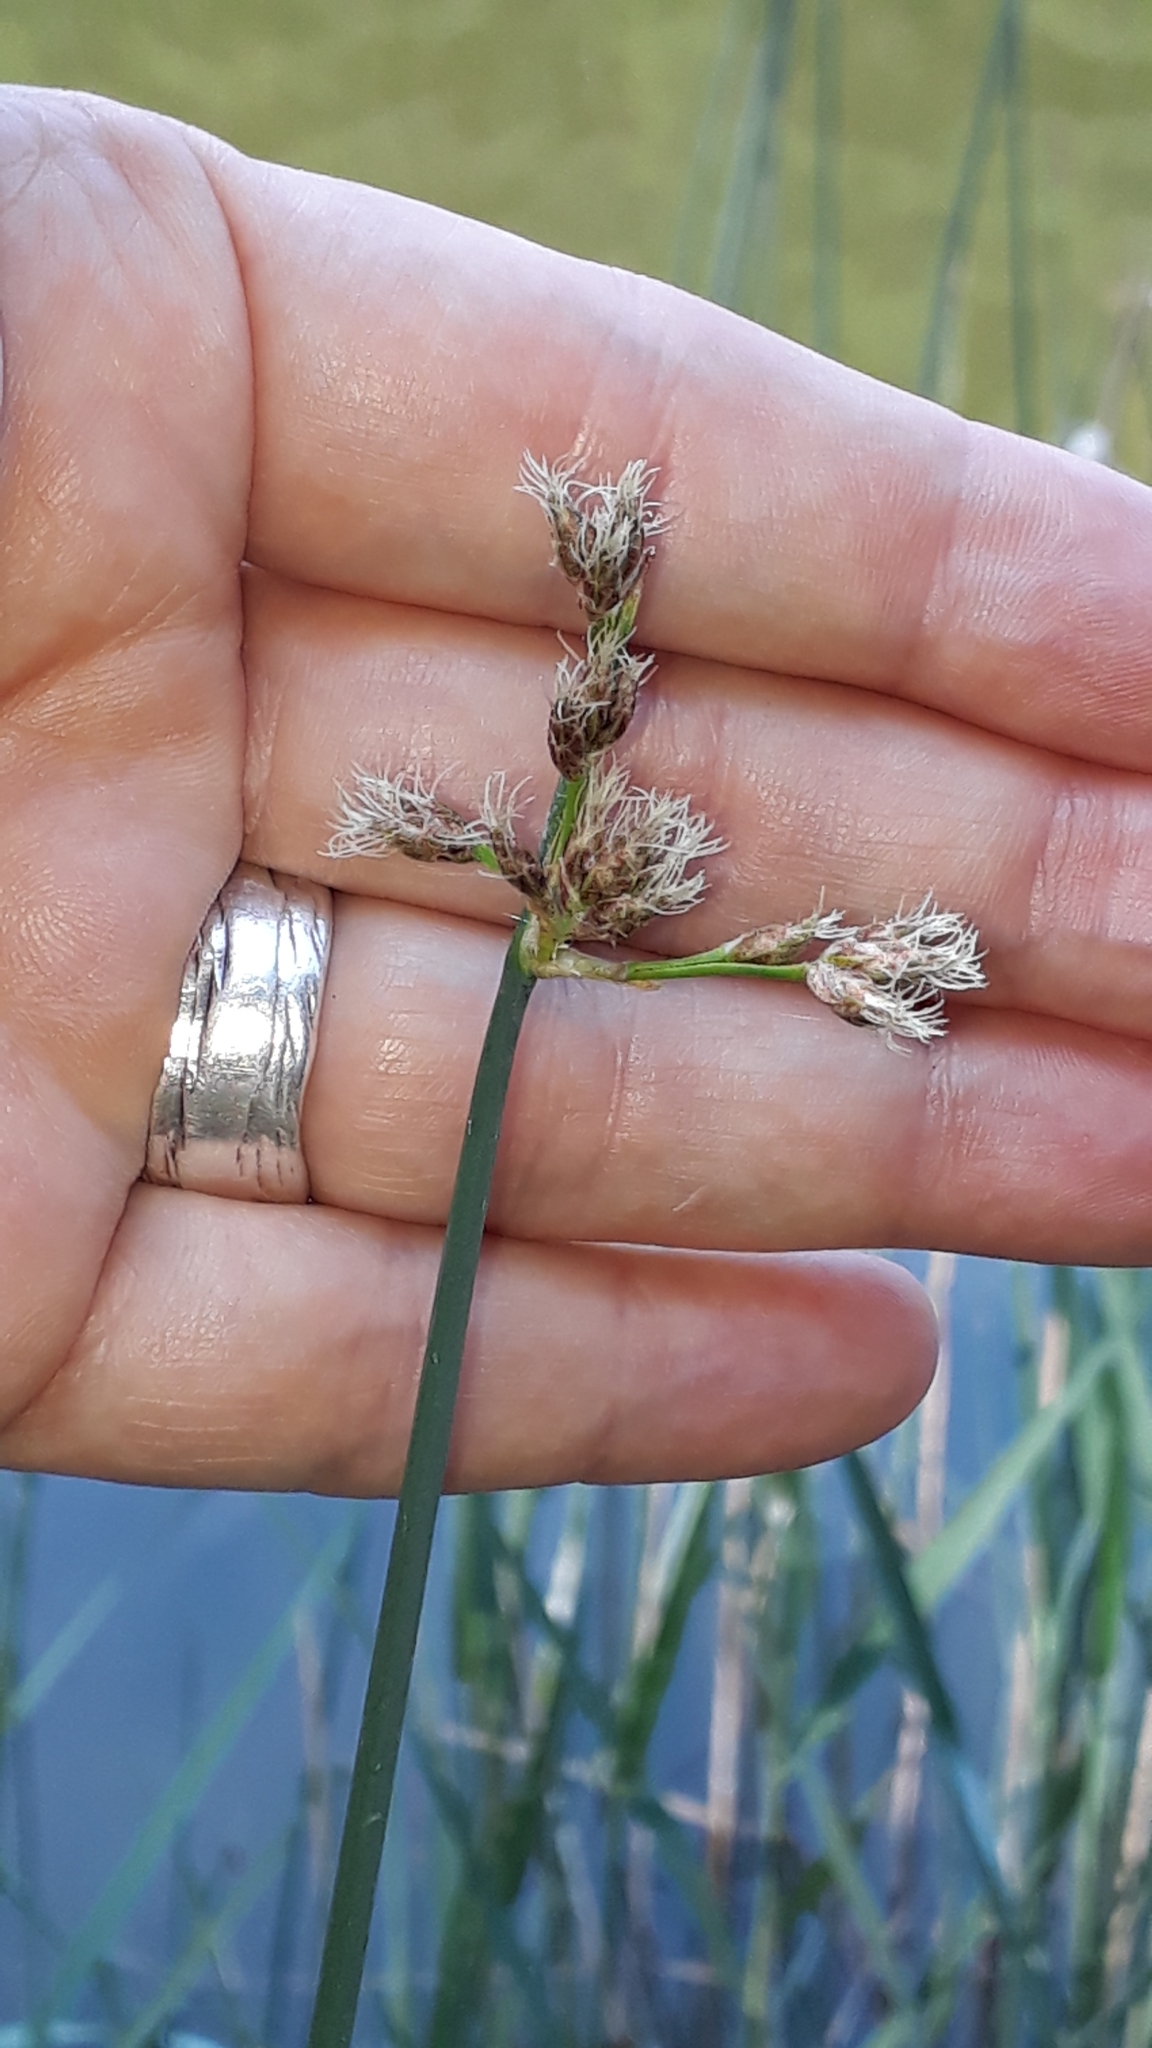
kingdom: Plantae
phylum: Tracheophyta
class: Liliopsida
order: Poales
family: Cyperaceae
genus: Schoenoplectus
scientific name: Schoenoplectus tabernaemontani
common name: Grey club-rush
